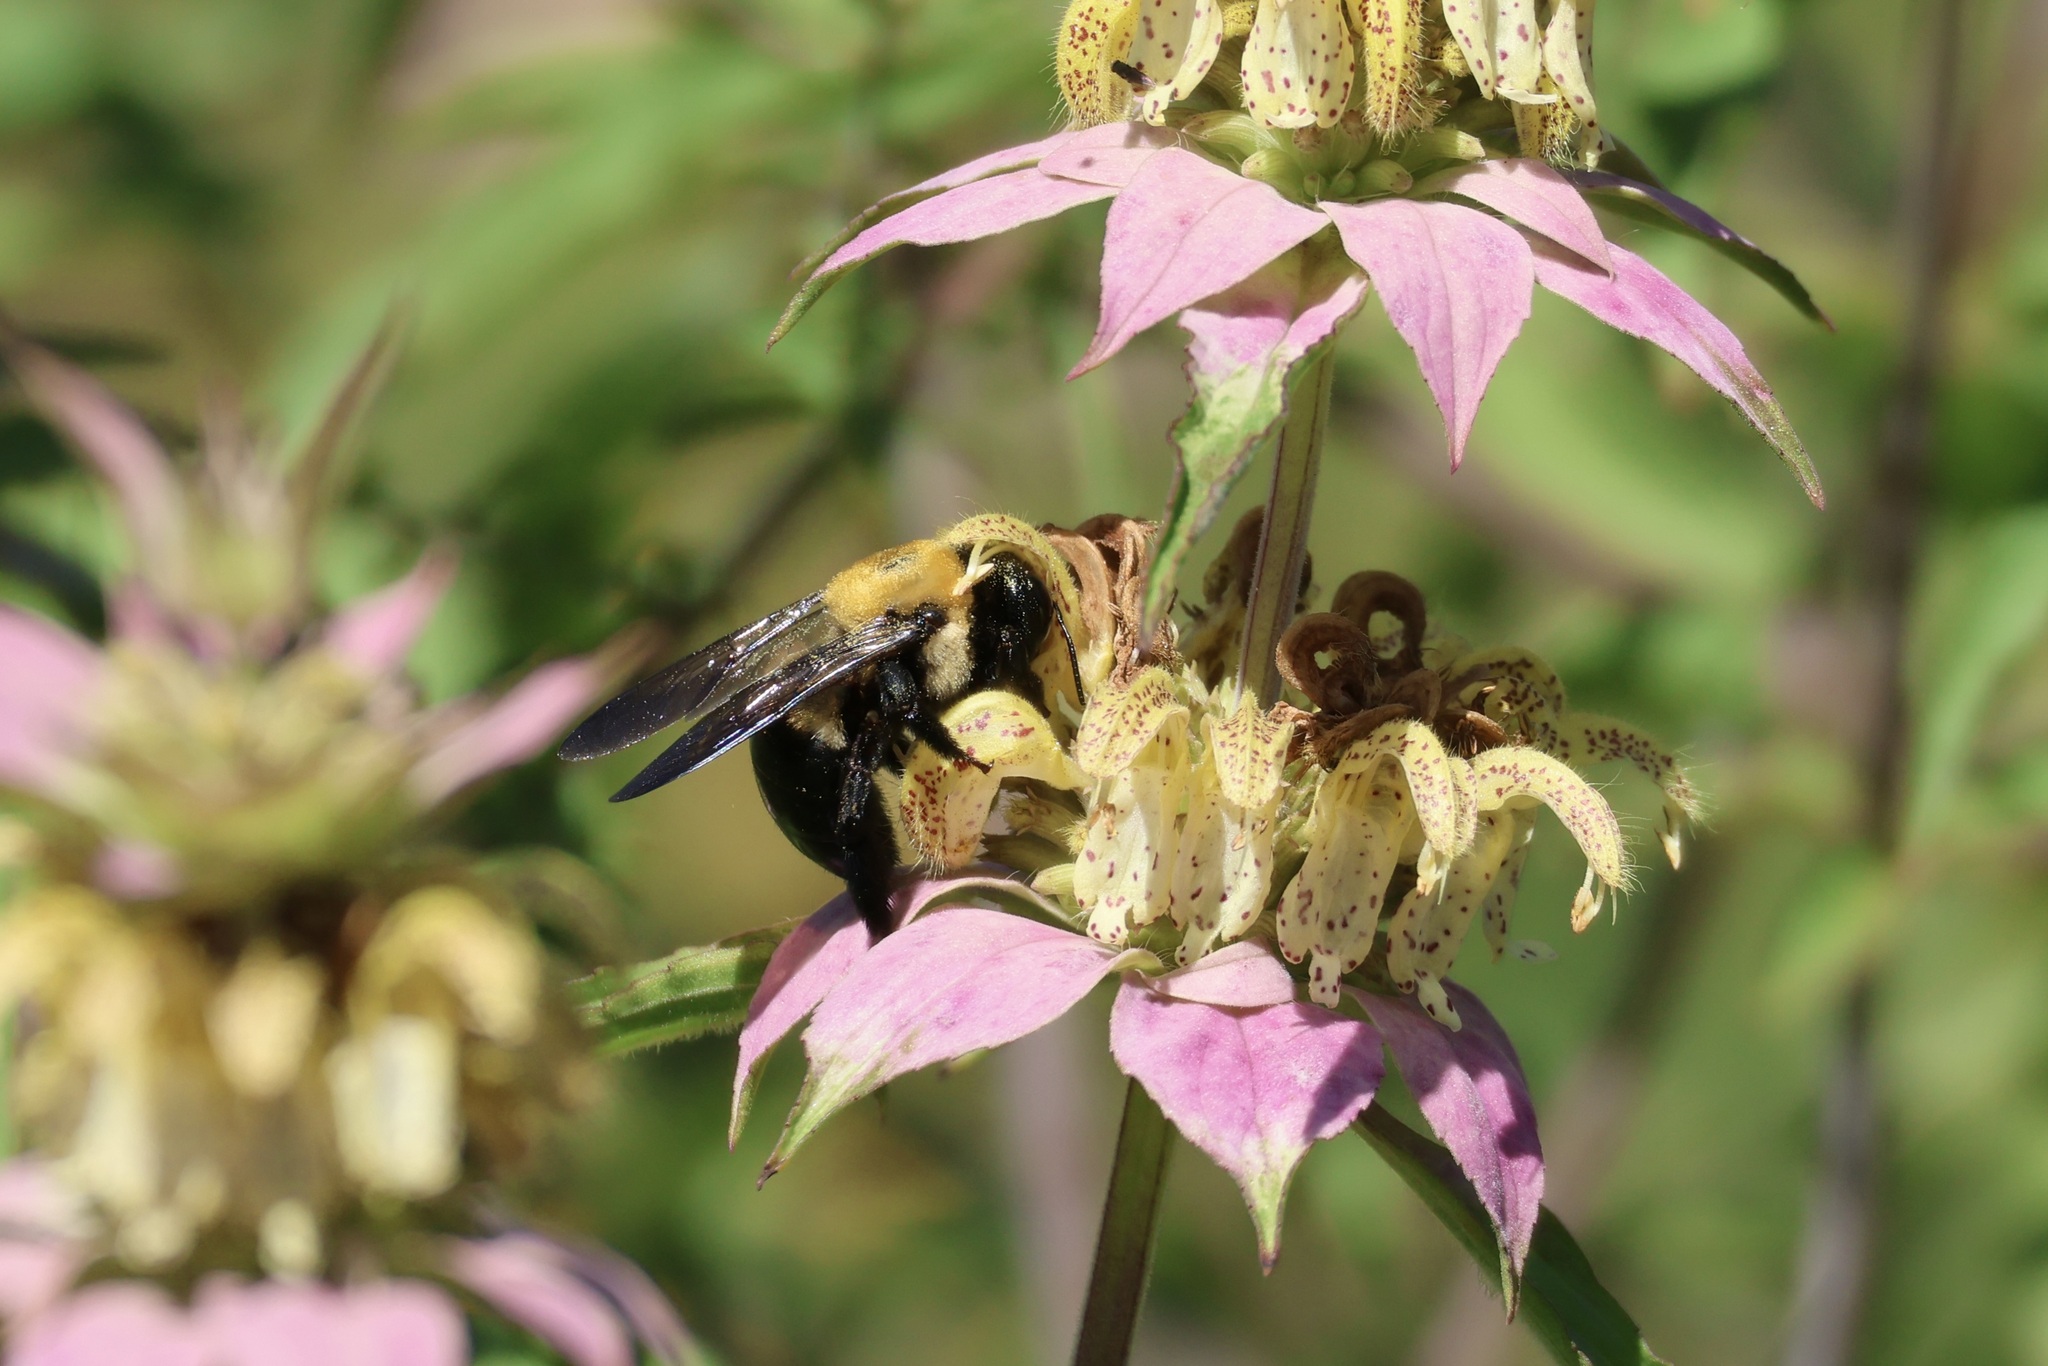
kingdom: Animalia
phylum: Arthropoda
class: Insecta
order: Hymenoptera
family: Apidae
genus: Xylocopa
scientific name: Xylocopa virginica
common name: Carpenter bee
